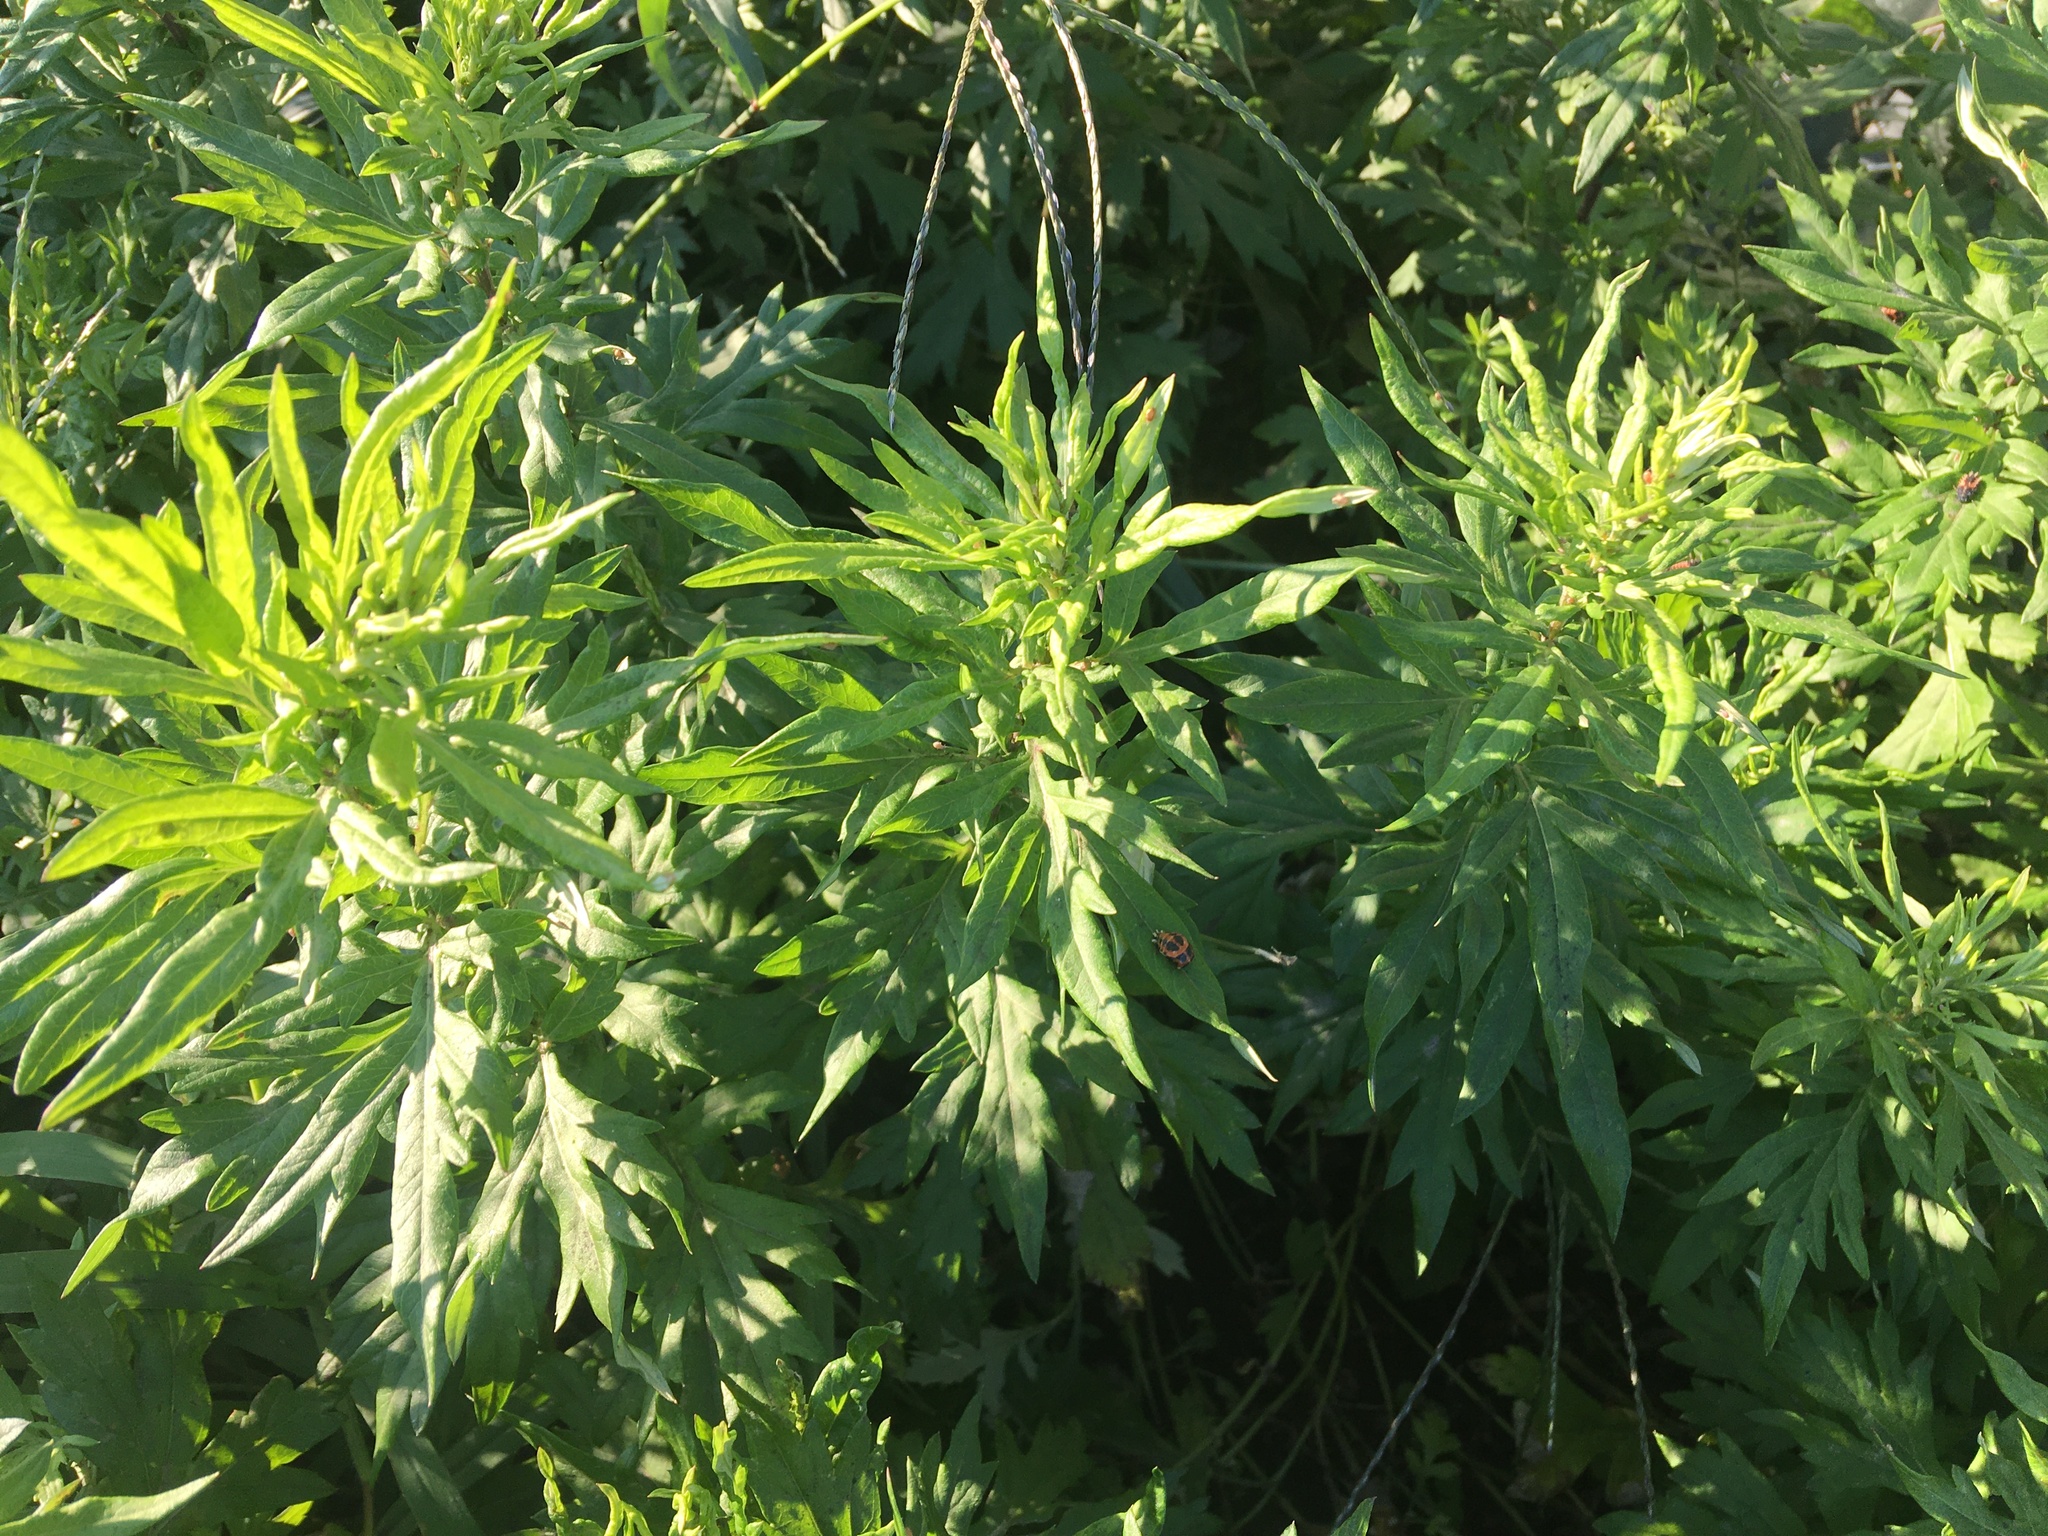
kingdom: Plantae
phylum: Tracheophyta
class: Magnoliopsida
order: Asterales
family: Asteraceae
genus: Artemisia
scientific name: Artemisia vulgaris
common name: Mugwort
